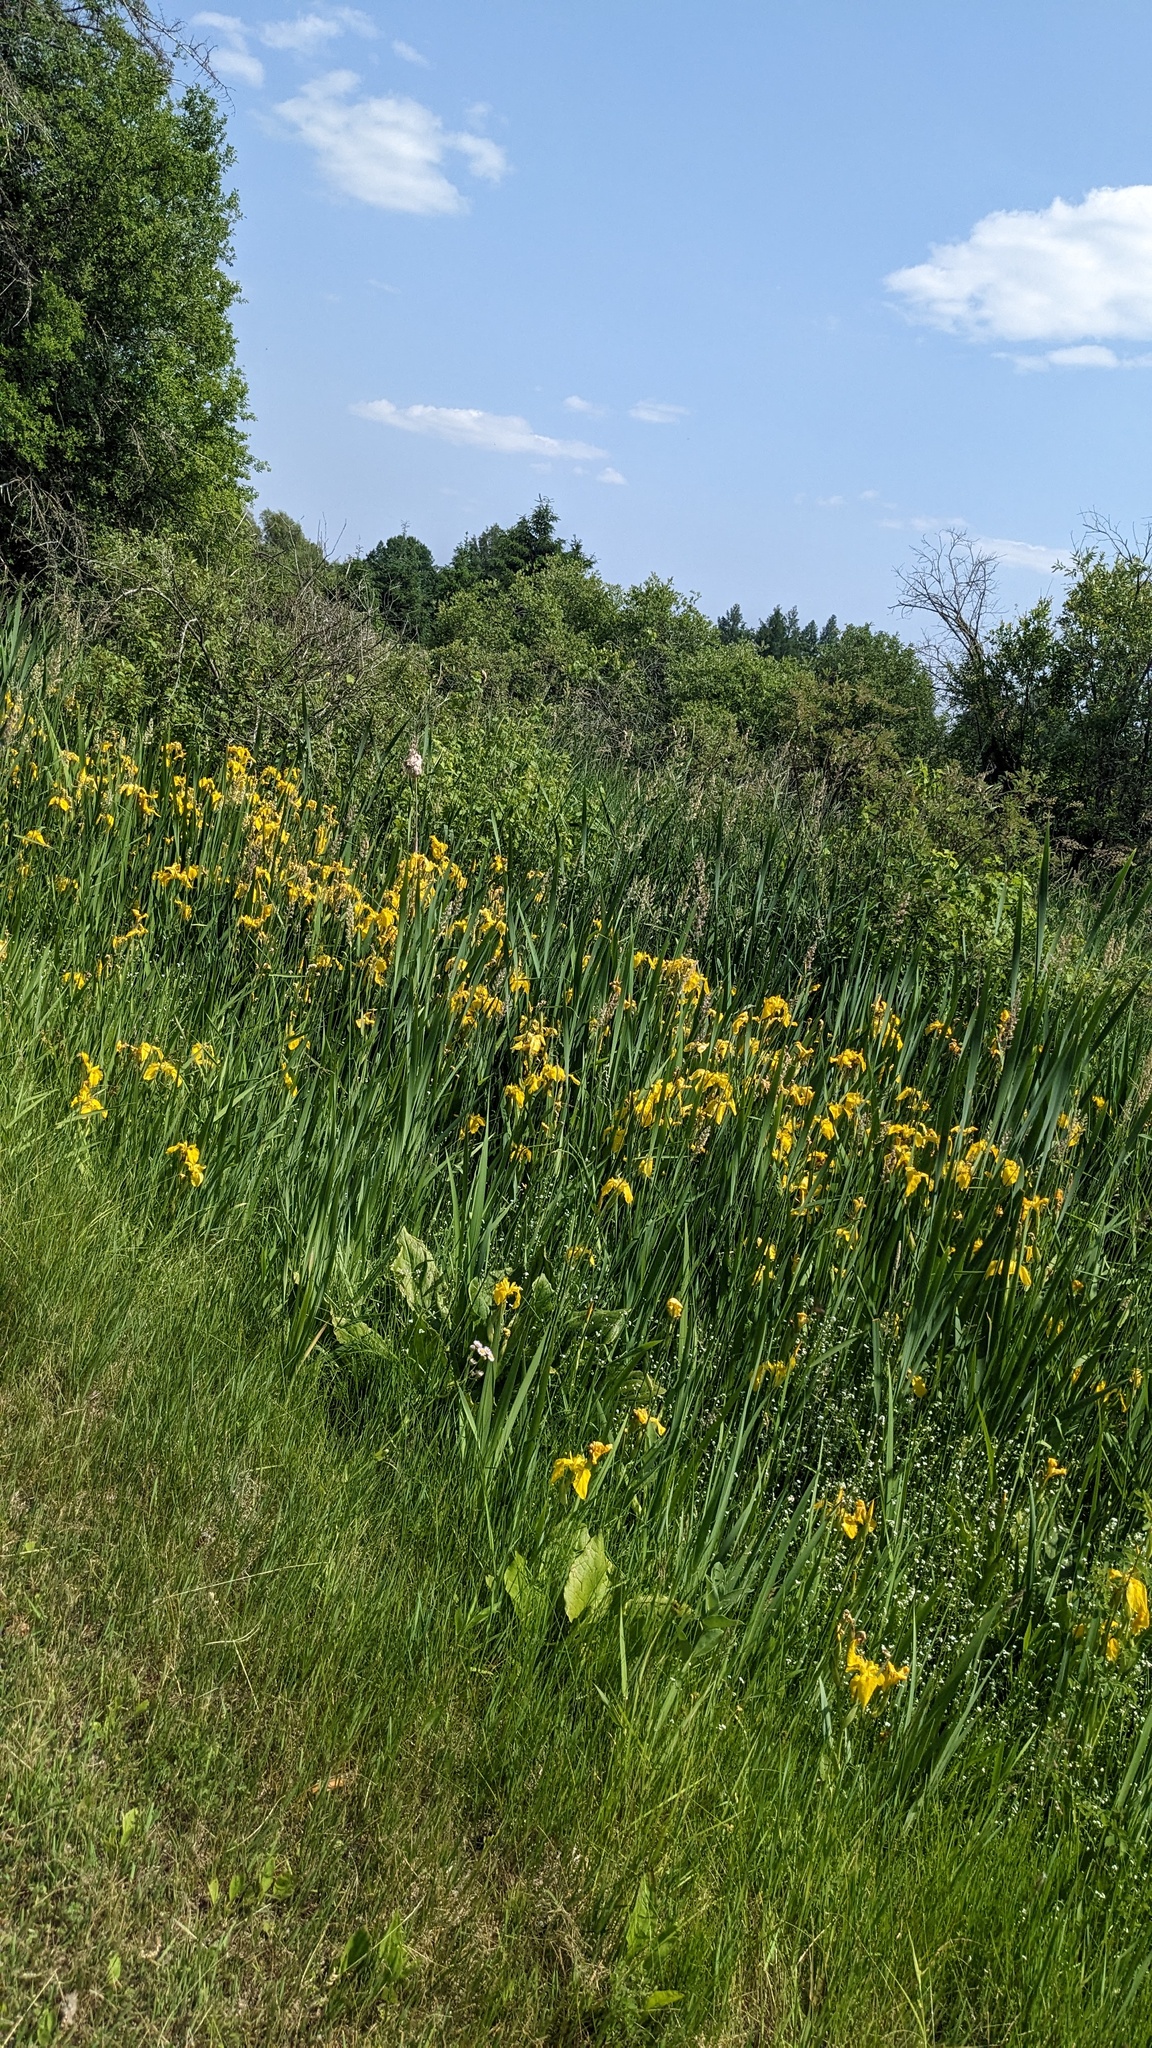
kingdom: Plantae
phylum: Tracheophyta
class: Liliopsida
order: Asparagales
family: Iridaceae
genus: Iris
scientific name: Iris pseudacorus
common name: Yellow flag
